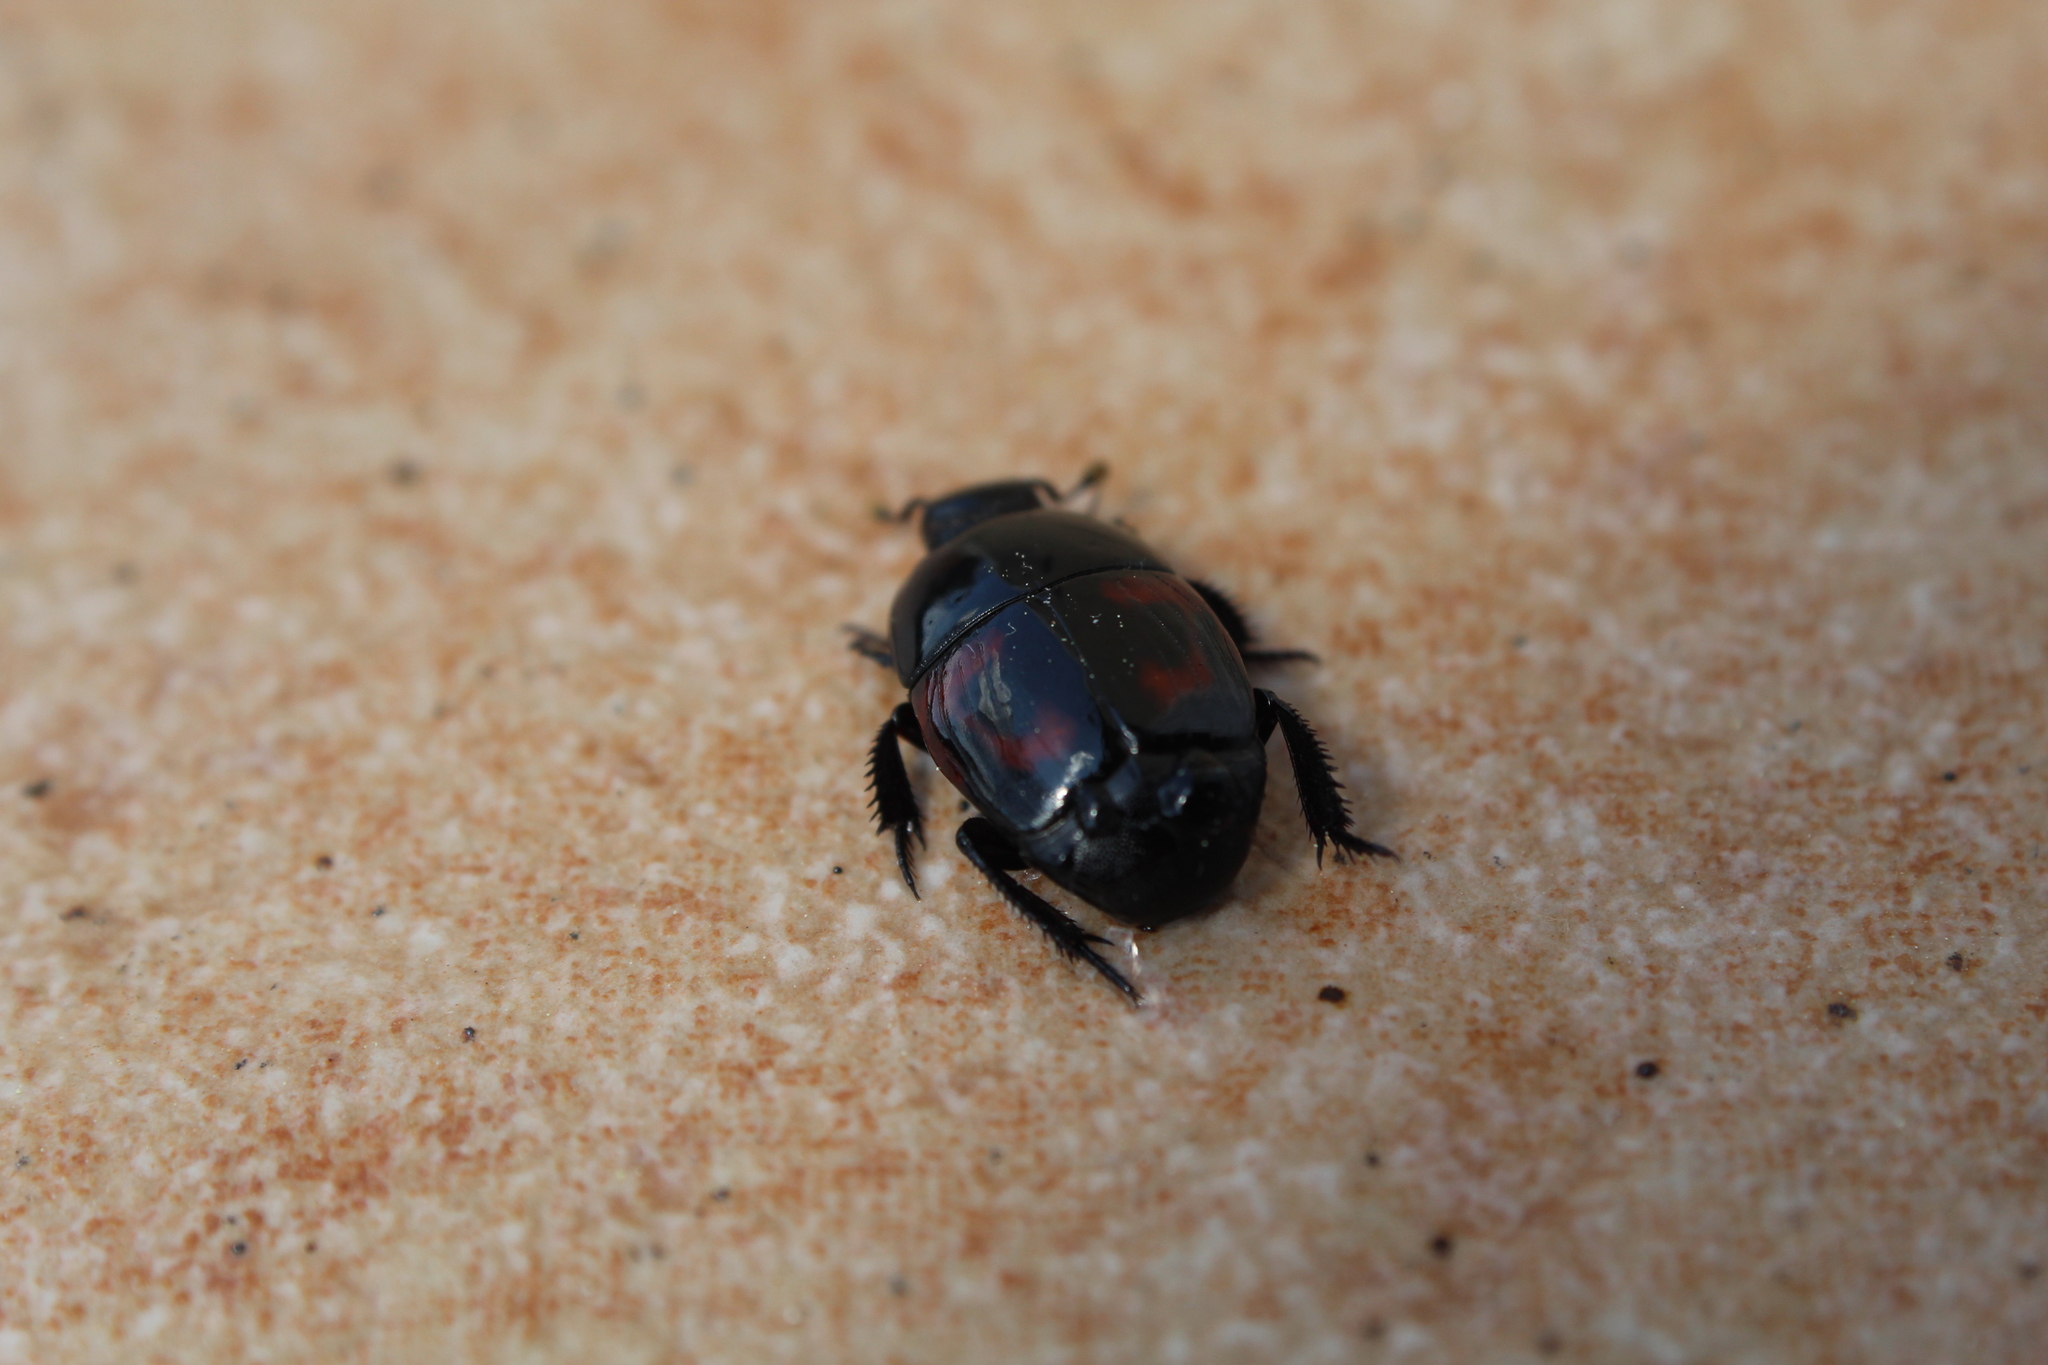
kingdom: Animalia
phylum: Arthropoda
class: Insecta
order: Coleoptera
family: Histeridae
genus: Hister
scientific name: Hister quadrimaculatus
